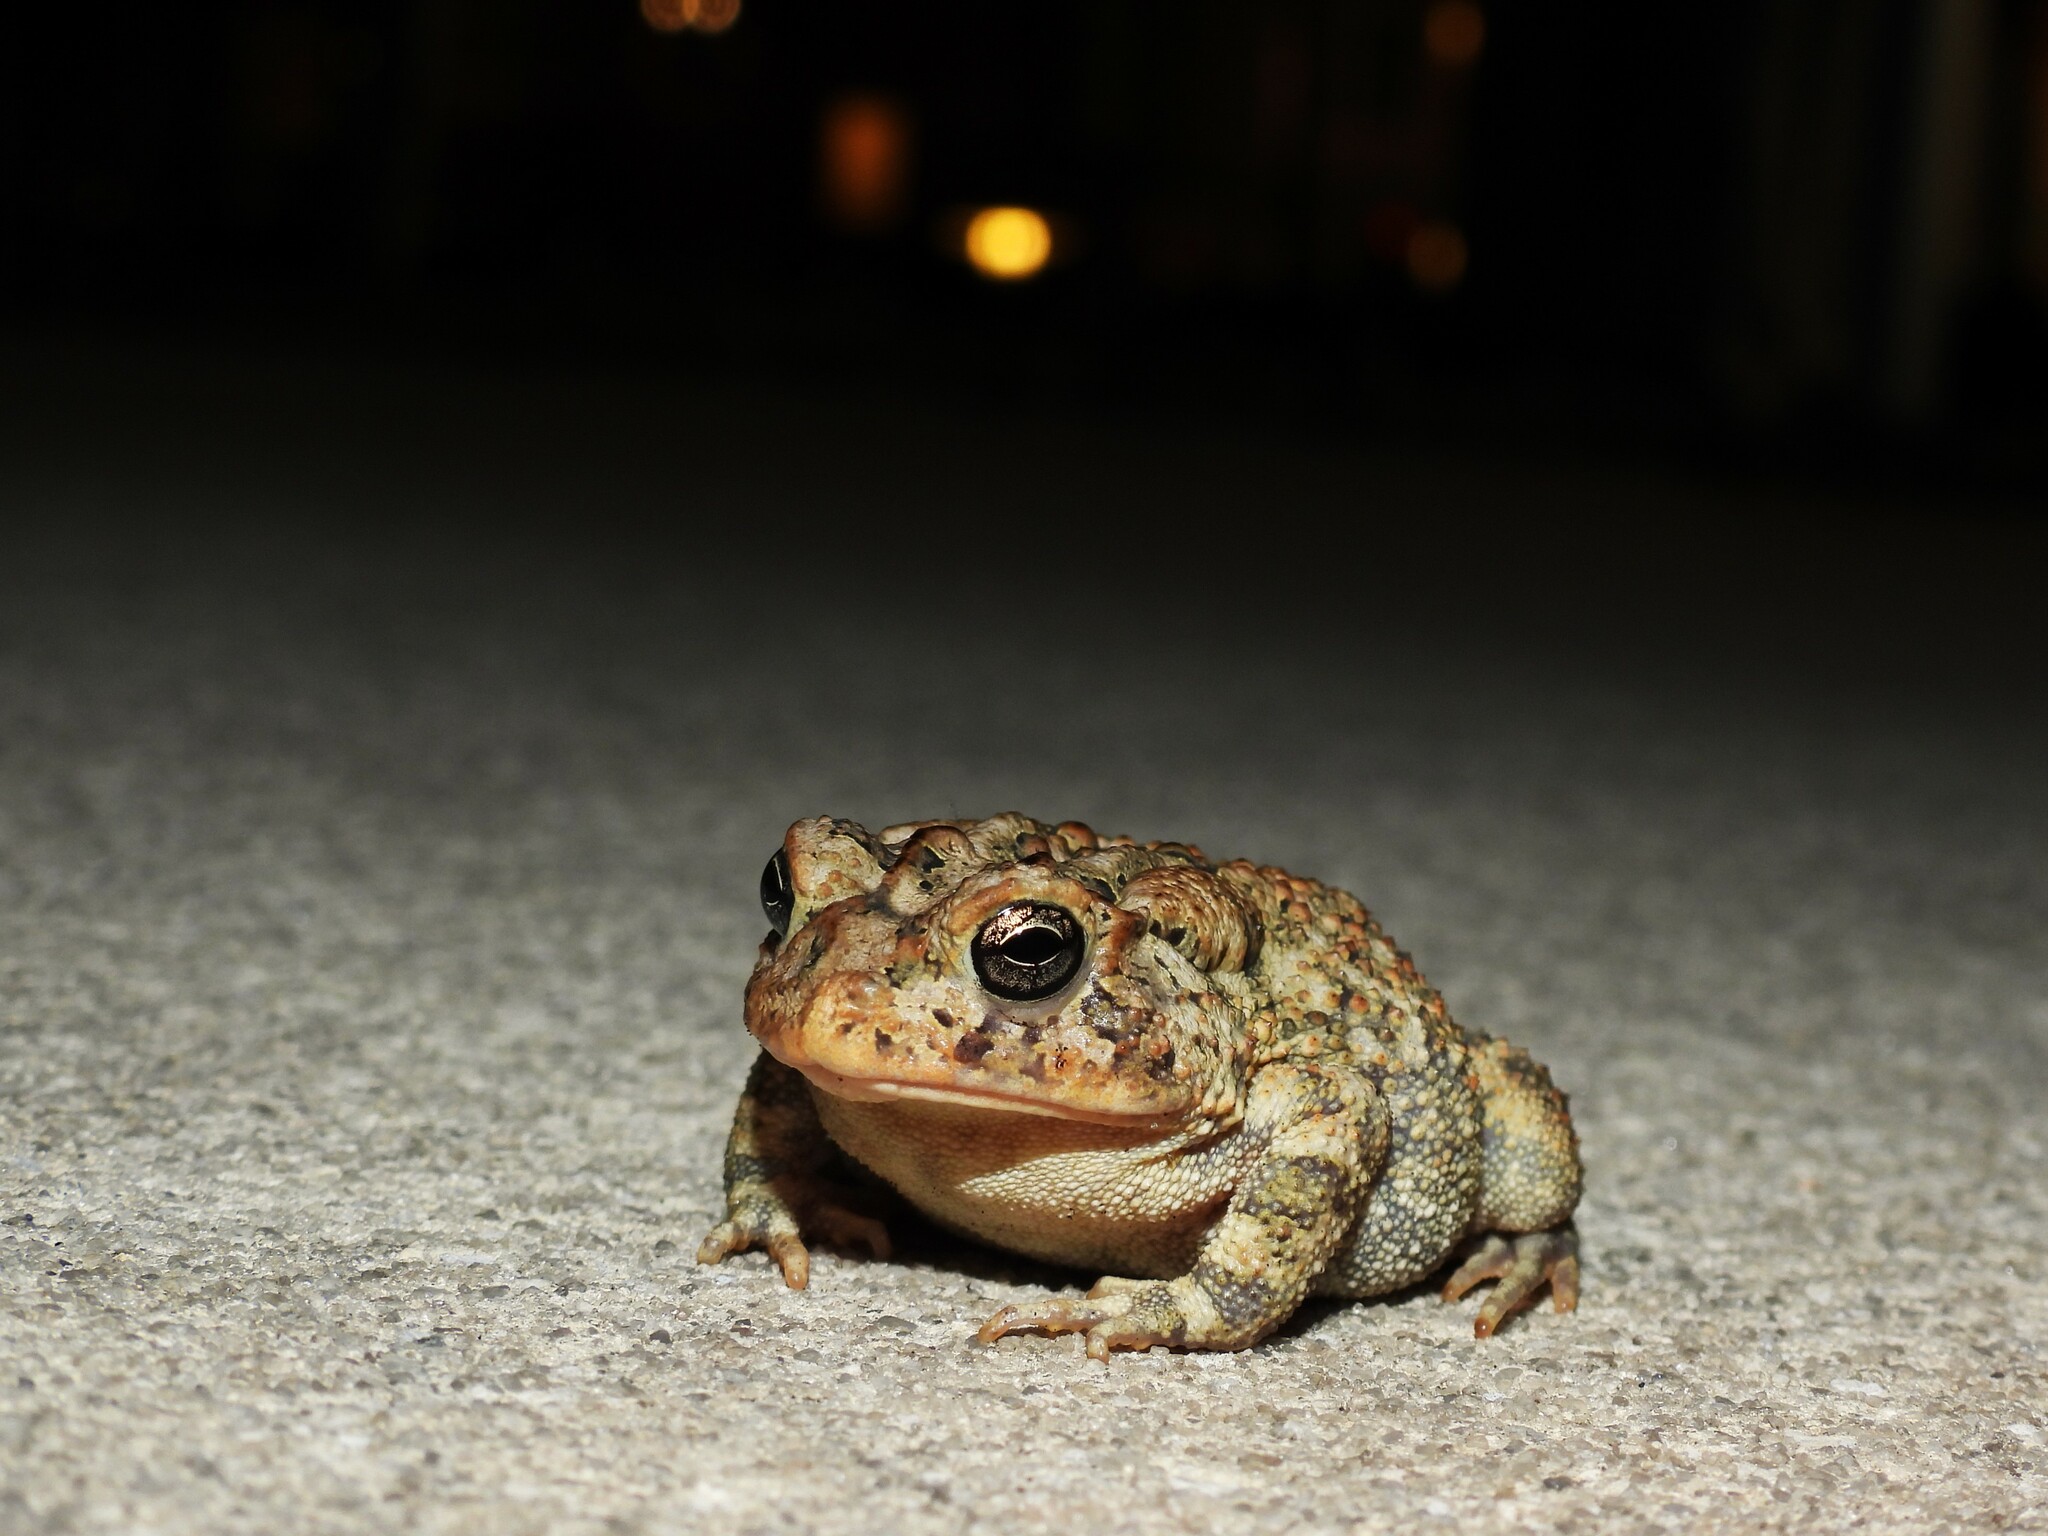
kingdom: Animalia
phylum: Chordata
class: Amphibia
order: Anura
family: Bufonidae
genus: Anaxyrus
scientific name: Anaxyrus terrestris
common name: Southern toad
